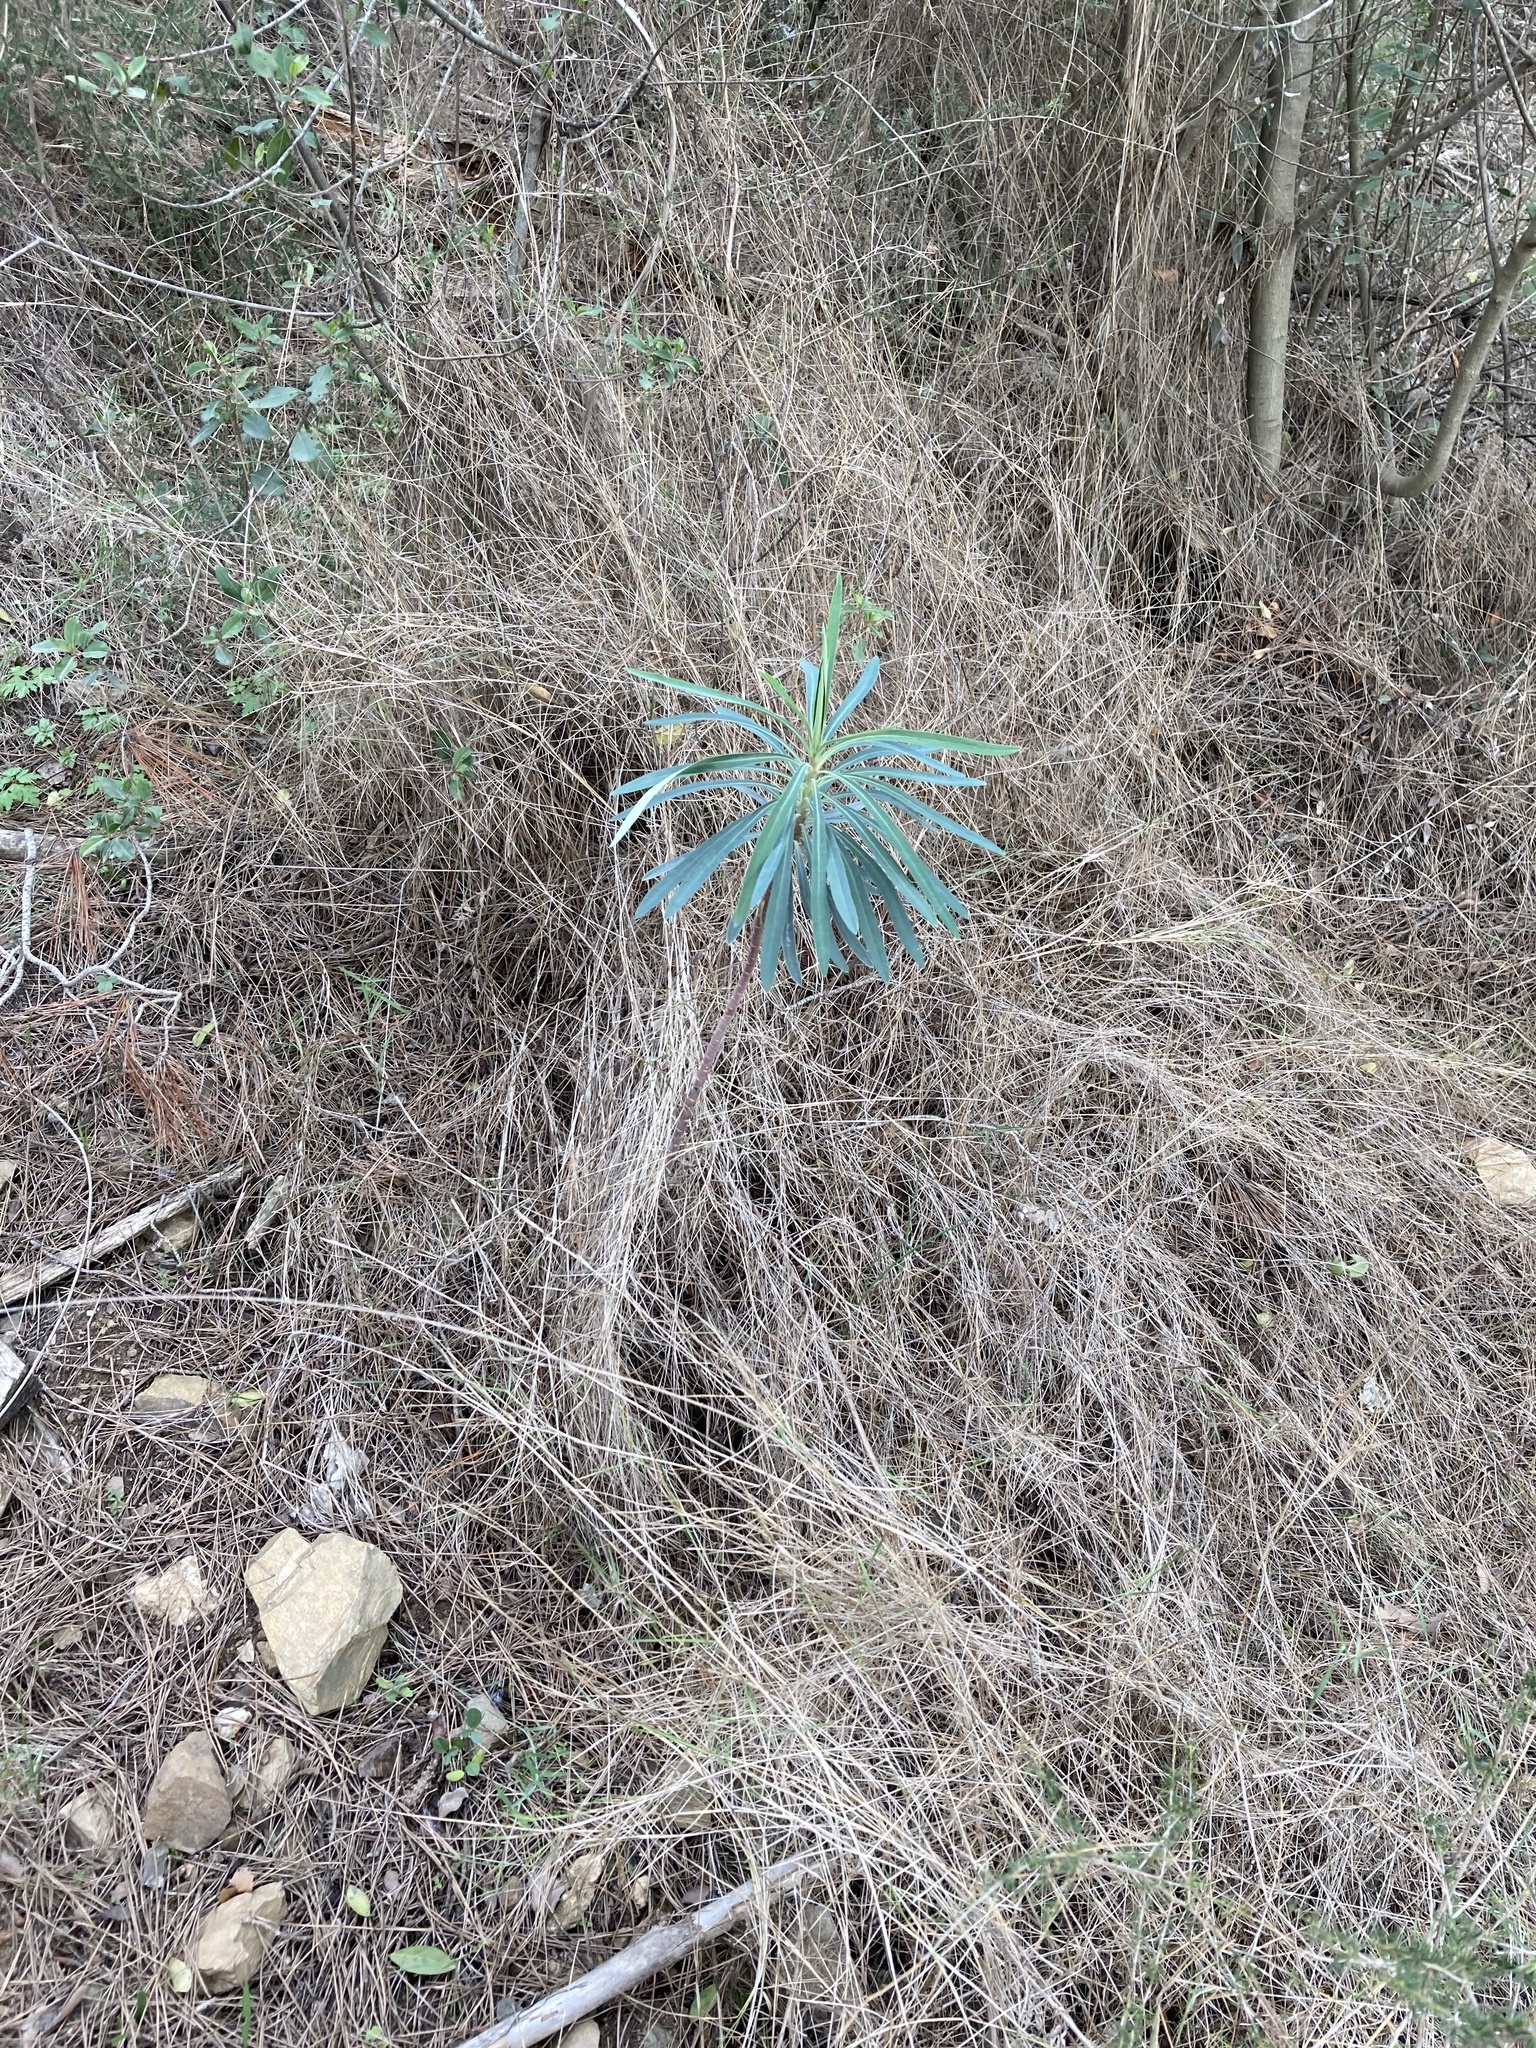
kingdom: Plantae
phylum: Tracheophyta
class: Magnoliopsida
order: Malpighiales
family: Euphorbiaceae
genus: Euphorbia
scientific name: Euphorbia characias
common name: Mediterranean spurge
